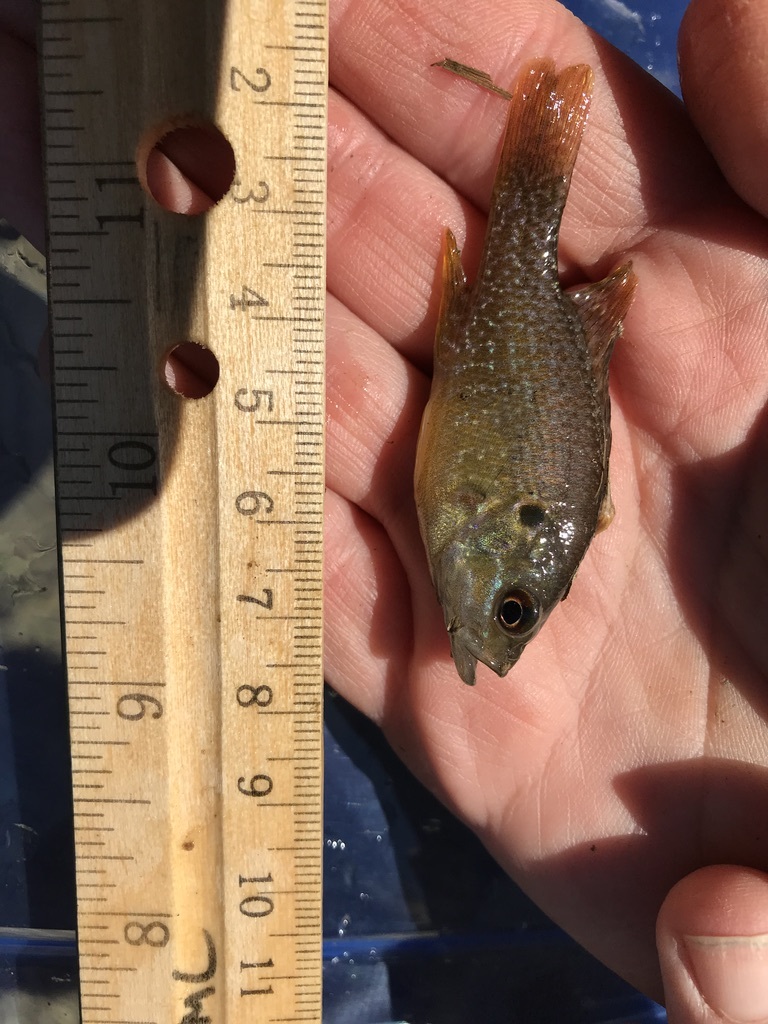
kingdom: Animalia
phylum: Chordata
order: Perciformes
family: Centrarchidae
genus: Lepomis
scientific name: Lepomis cyanellus
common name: Green sunfish
